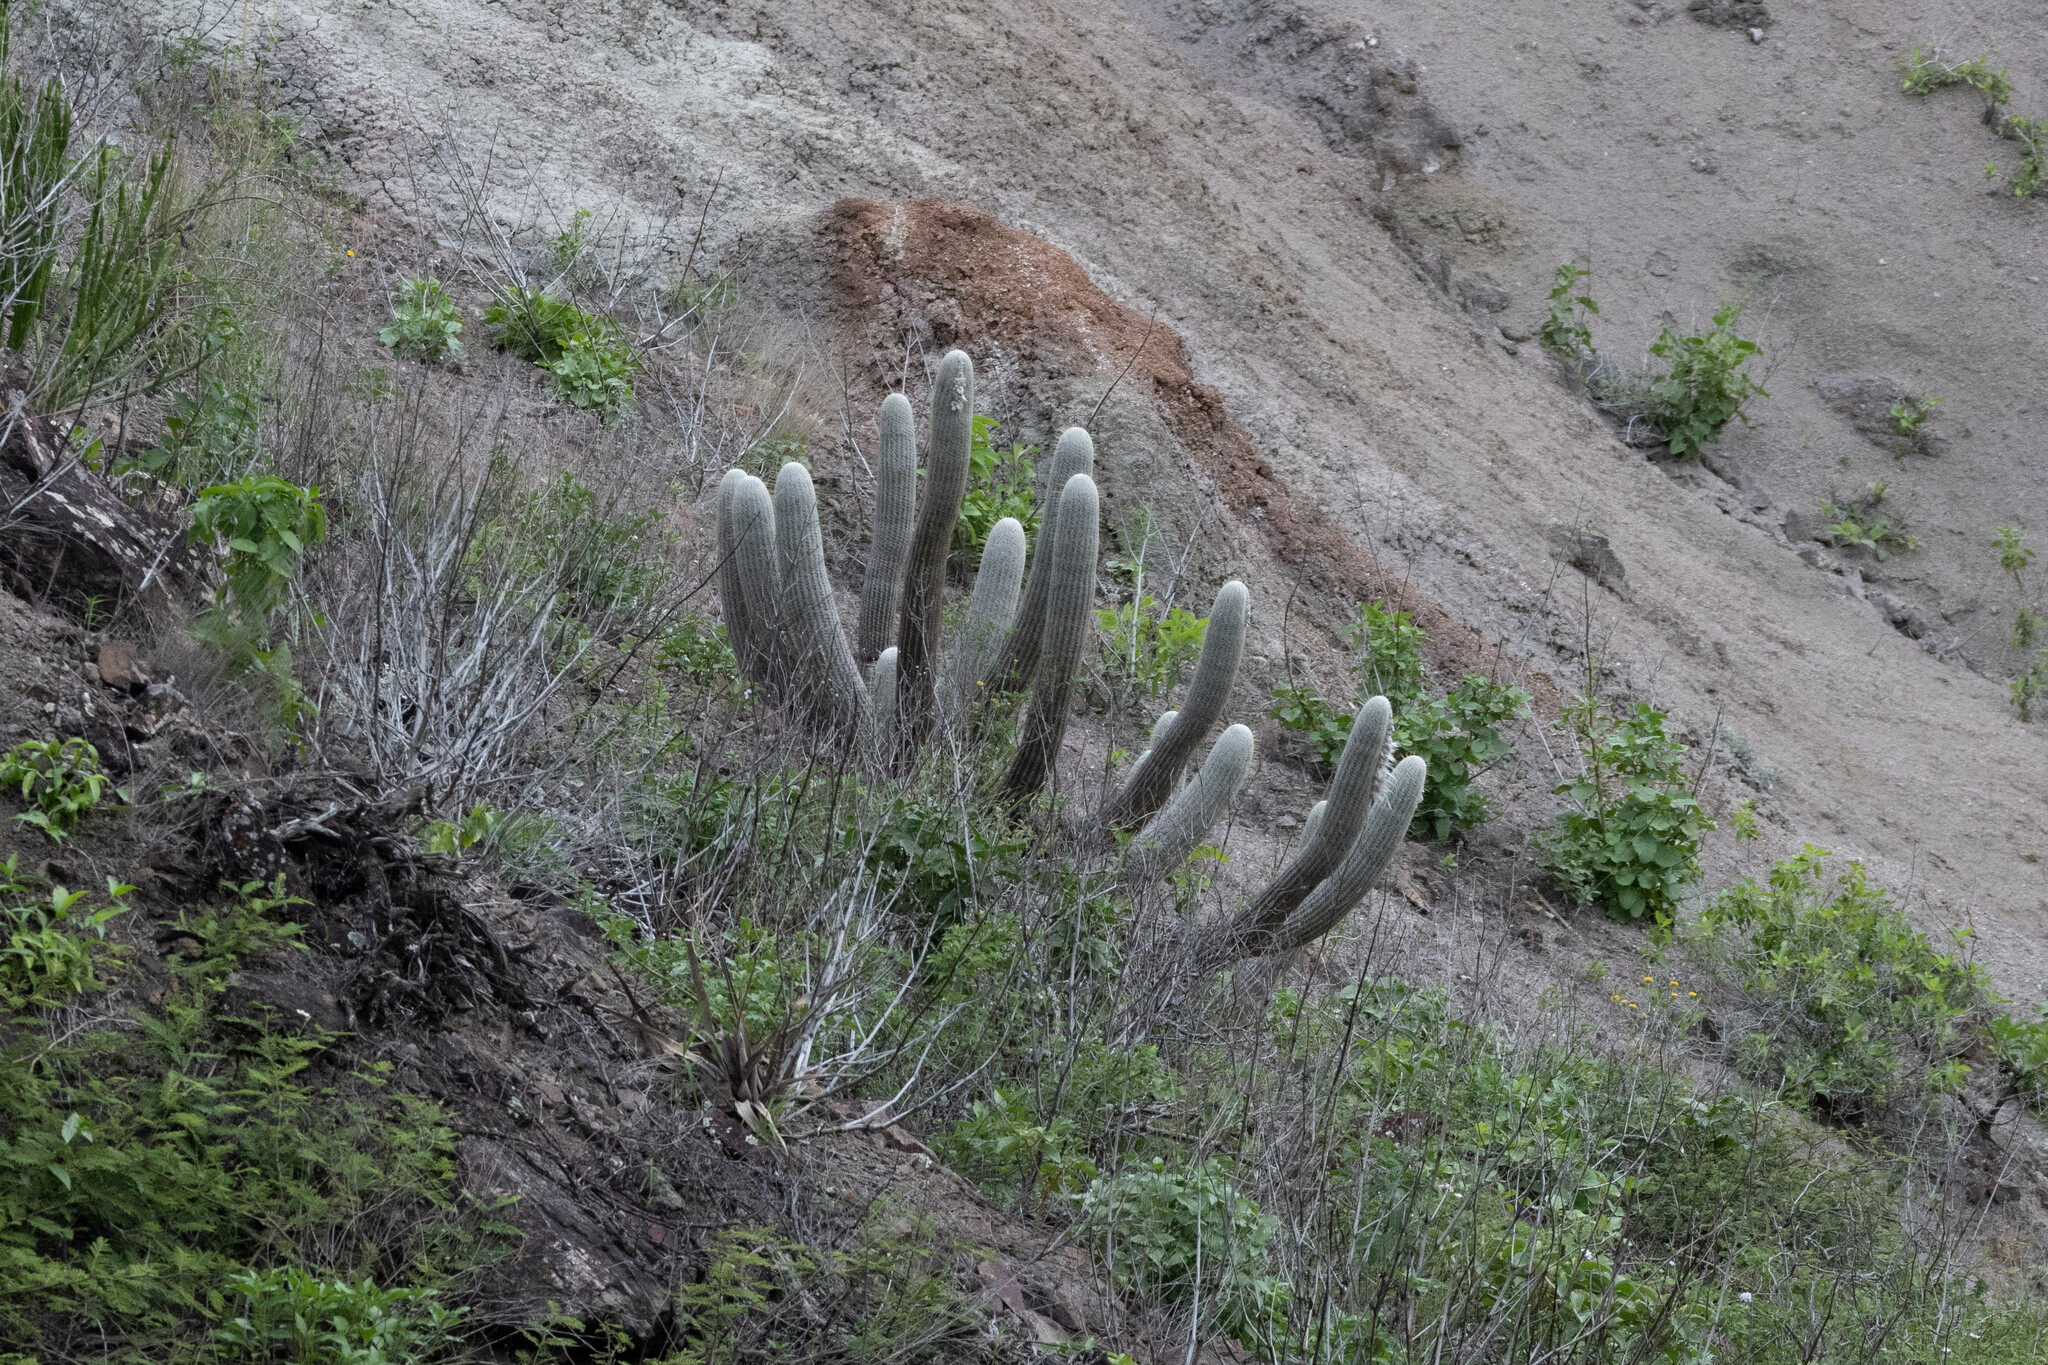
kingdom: Plantae
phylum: Tracheophyta
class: Magnoliopsida
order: Caryophyllales
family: Cactaceae
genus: Espostoa
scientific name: Espostoa frutescens
